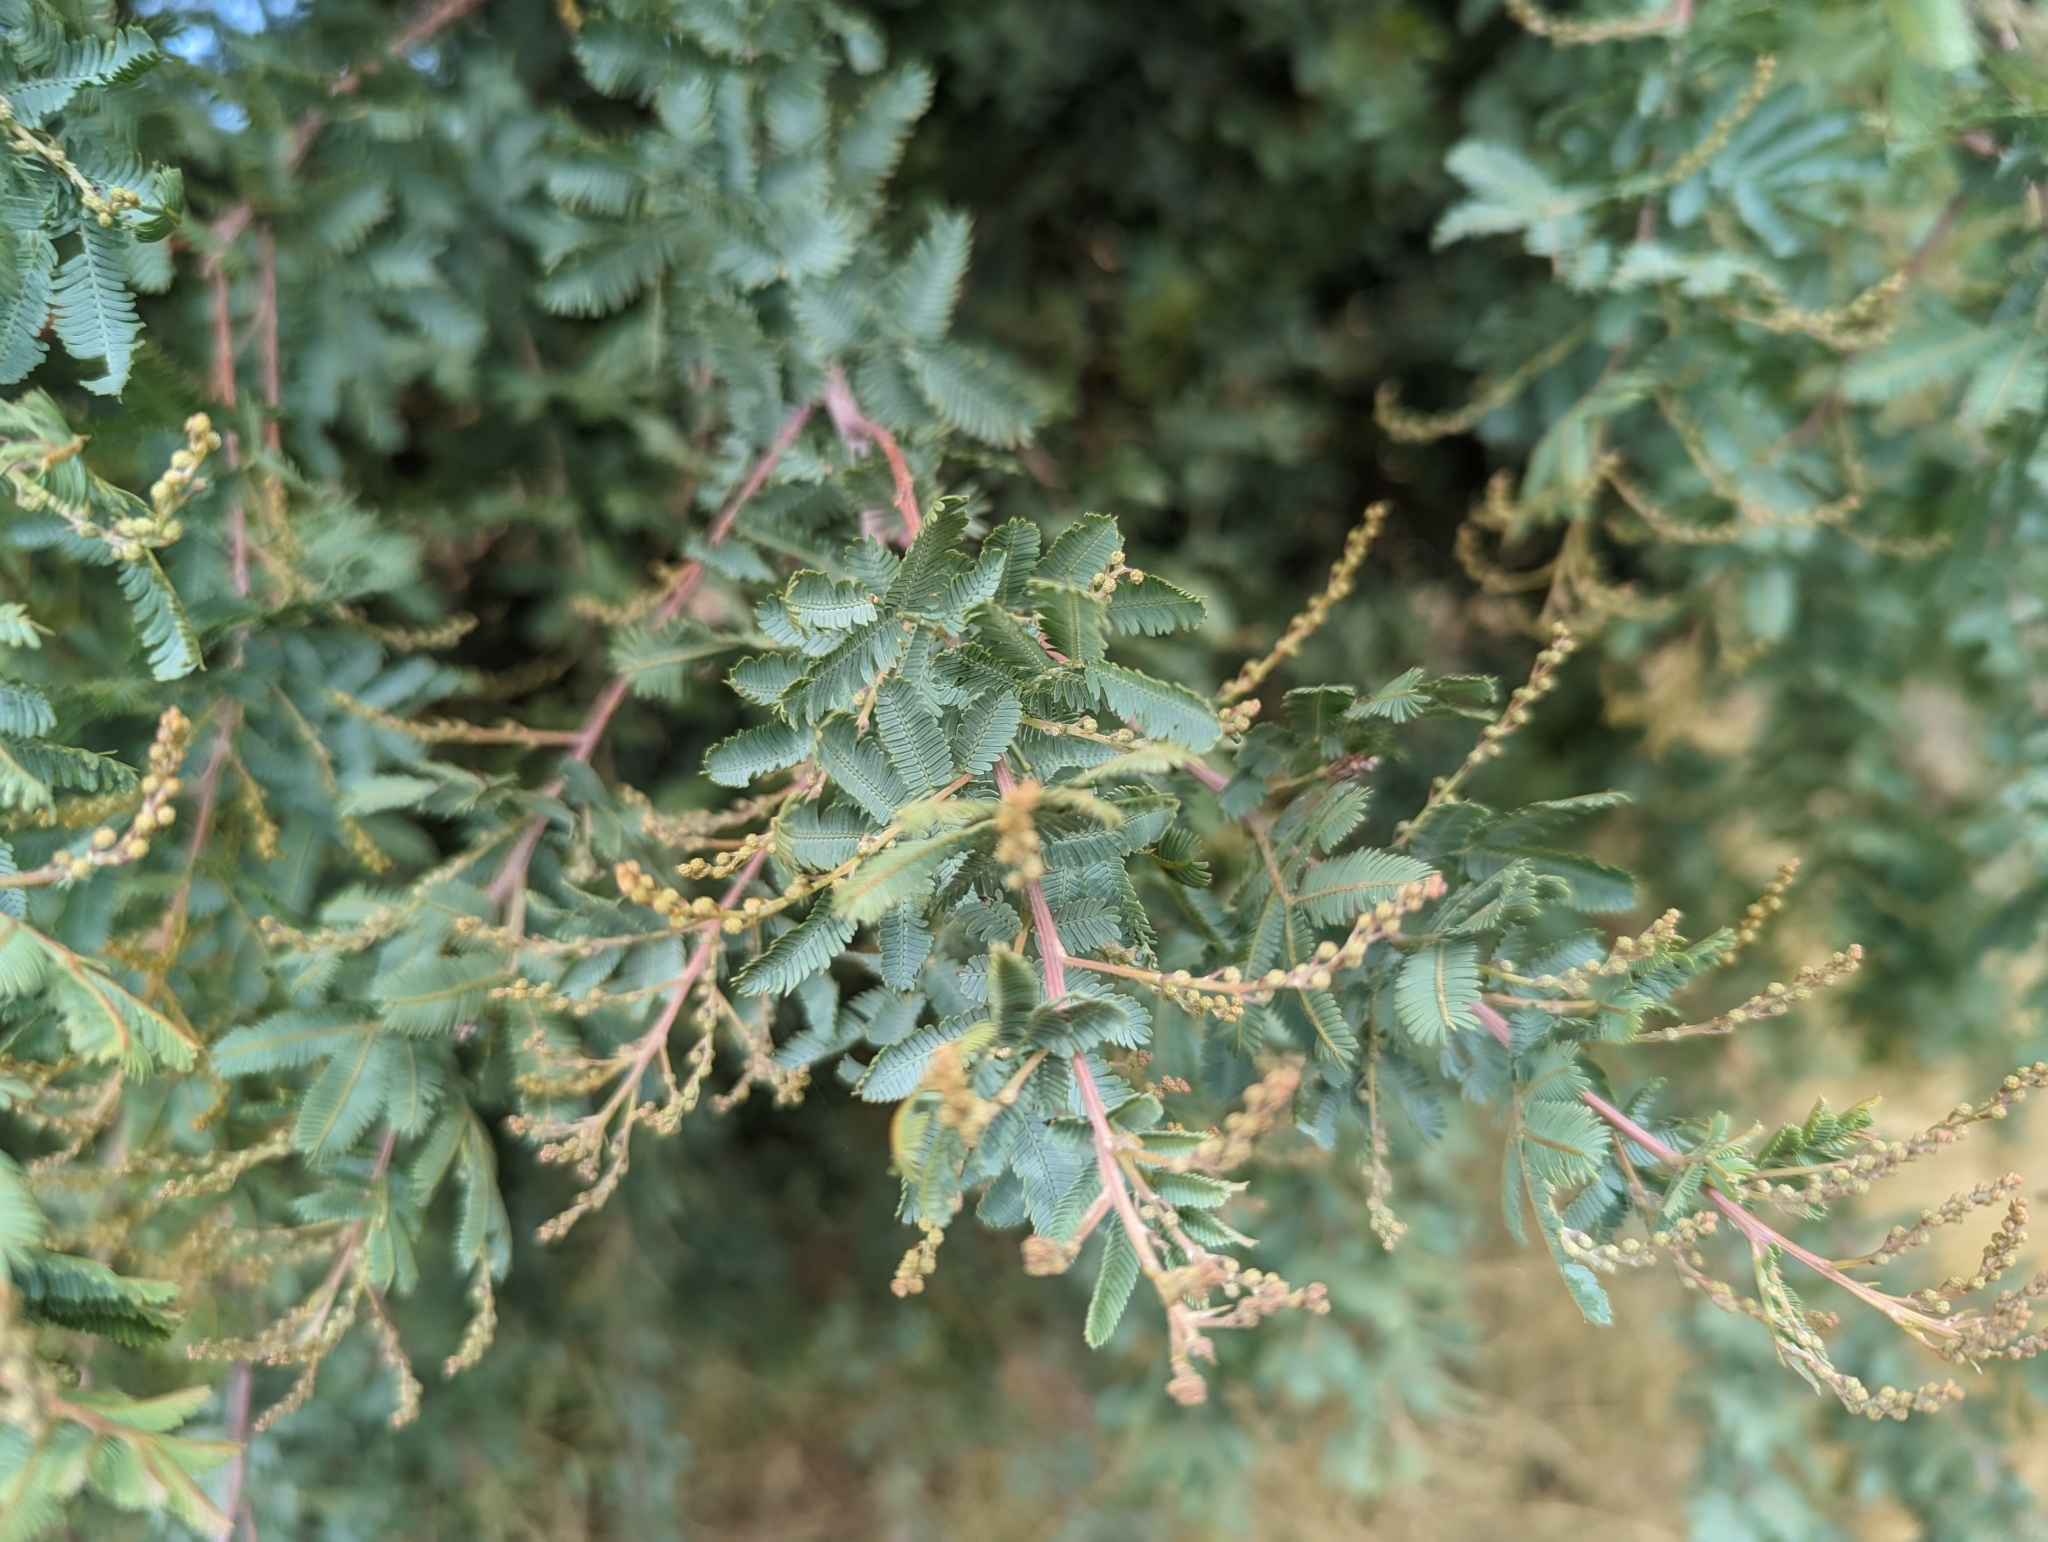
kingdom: Plantae
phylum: Tracheophyta
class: Magnoliopsida
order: Fabales
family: Fabaceae
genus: Acacia
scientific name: Acacia baileyana
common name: Cootamundra wattle
